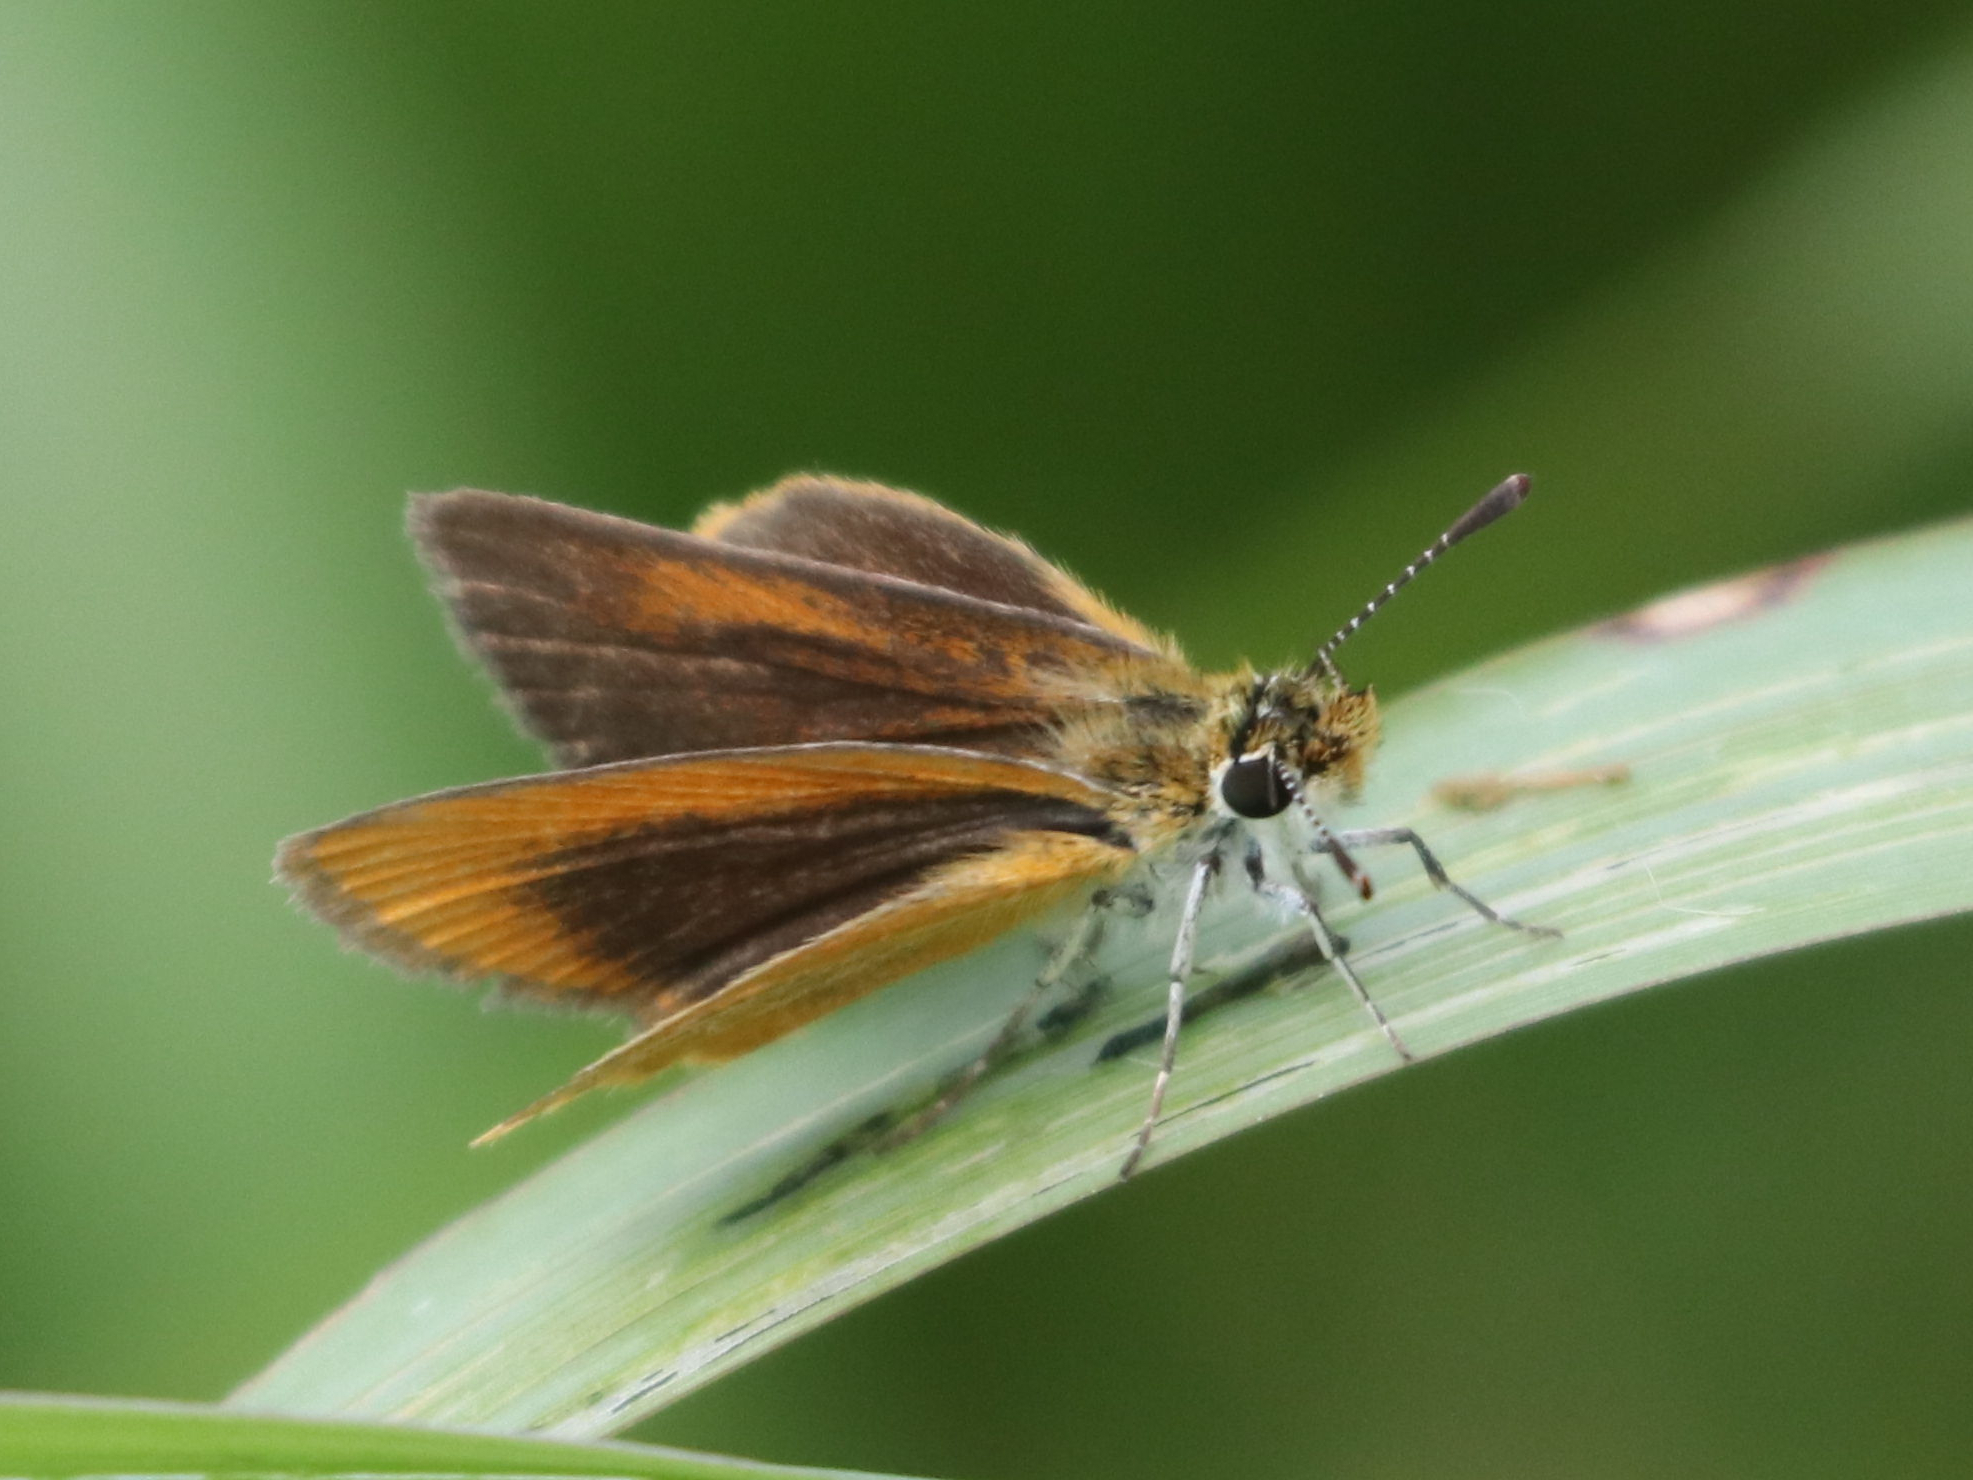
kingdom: Animalia
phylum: Arthropoda
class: Insecta
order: Lepidoptera
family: Hesperiidae
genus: Ancyloxypha
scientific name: Ancyloxypha numitor
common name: Least skipper
